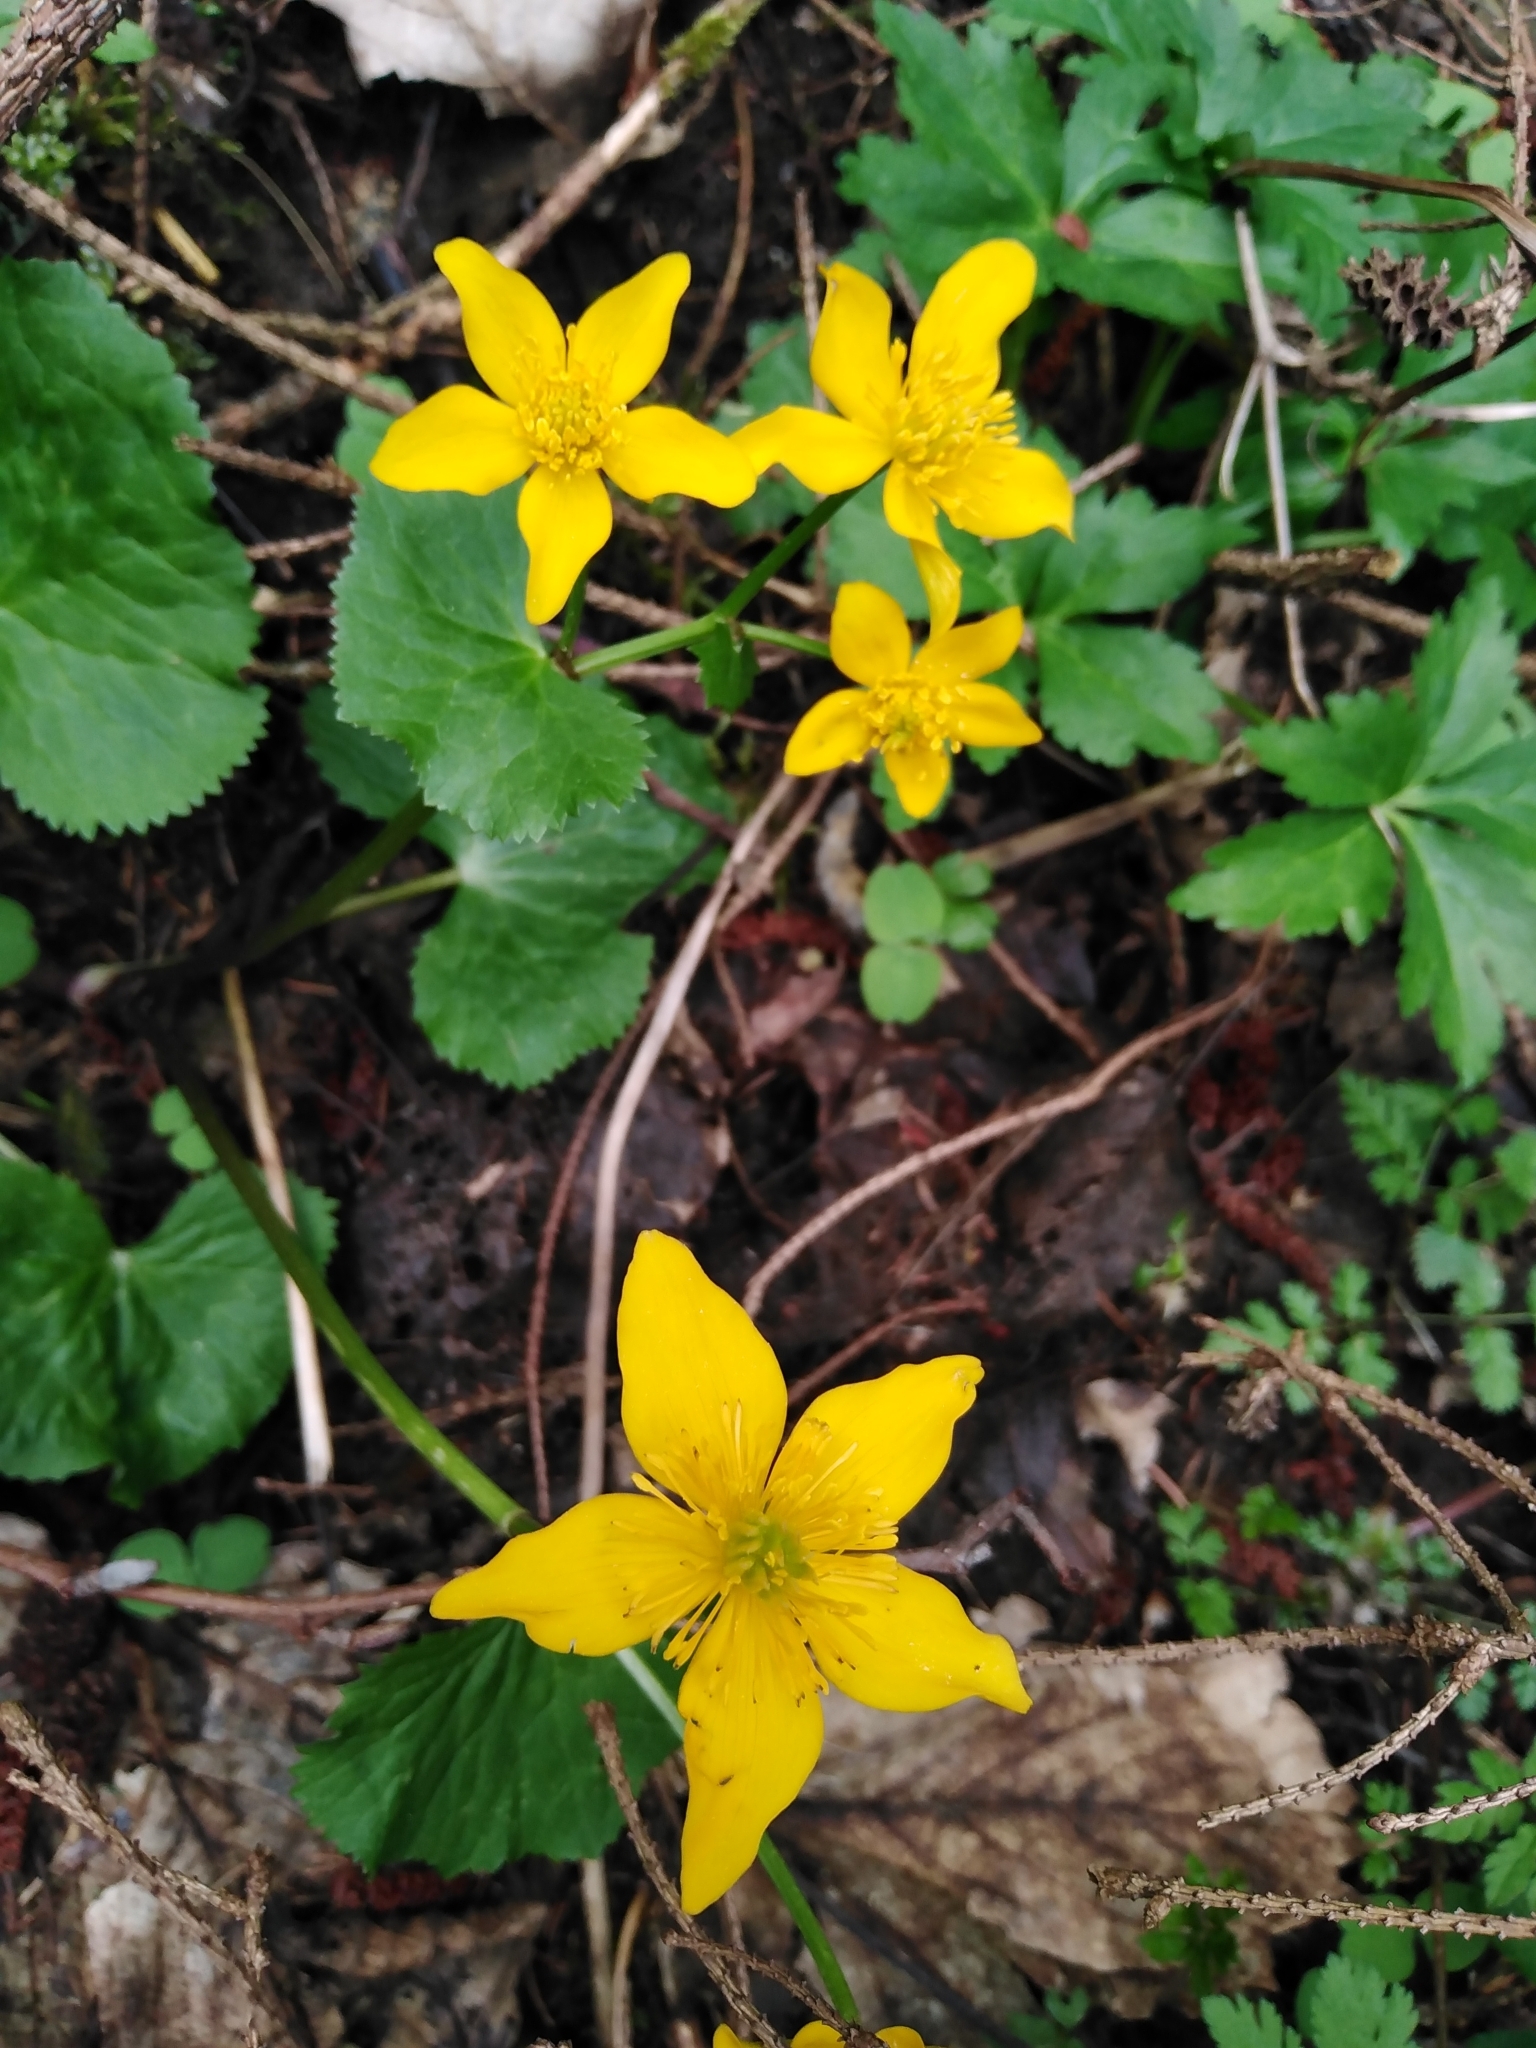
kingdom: Plantae
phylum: Tracheophyta
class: Magnoliopsida
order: Ranunculales
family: Ranunculaceae
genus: Caltha
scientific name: Caltha palustris
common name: Marsh marigold
